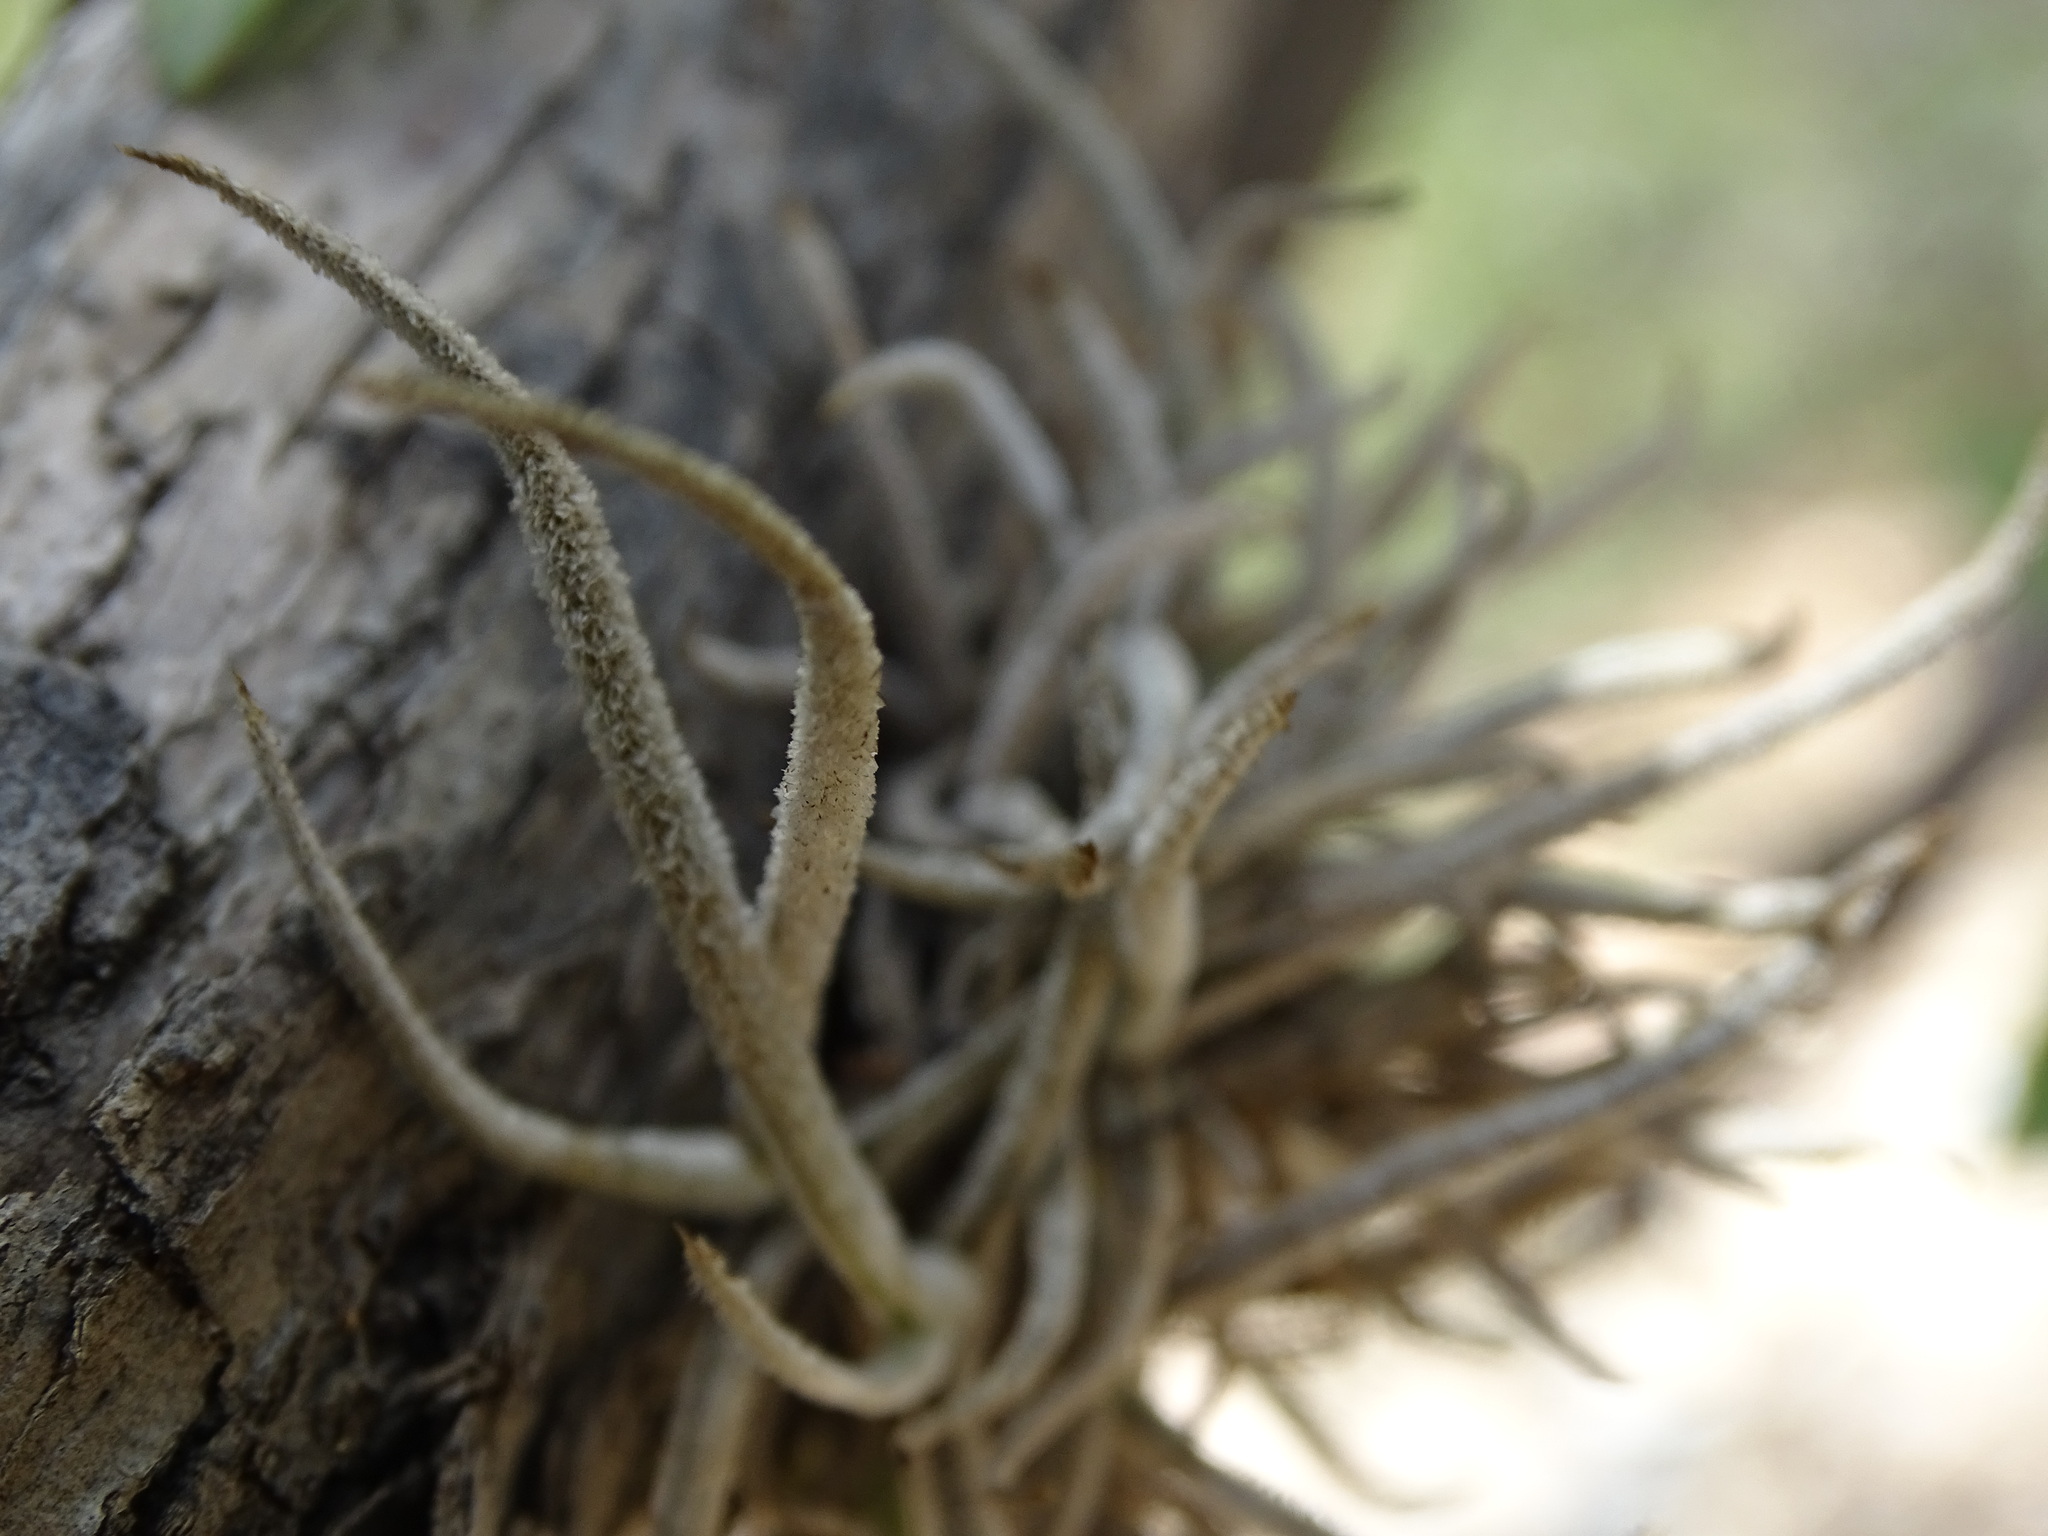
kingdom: Plantae
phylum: Tracheophyta
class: Liliopsida
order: Poales
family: Bromeliaceae
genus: Tillandsia
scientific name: Tillandsia recurvata
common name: Small ballmoss
